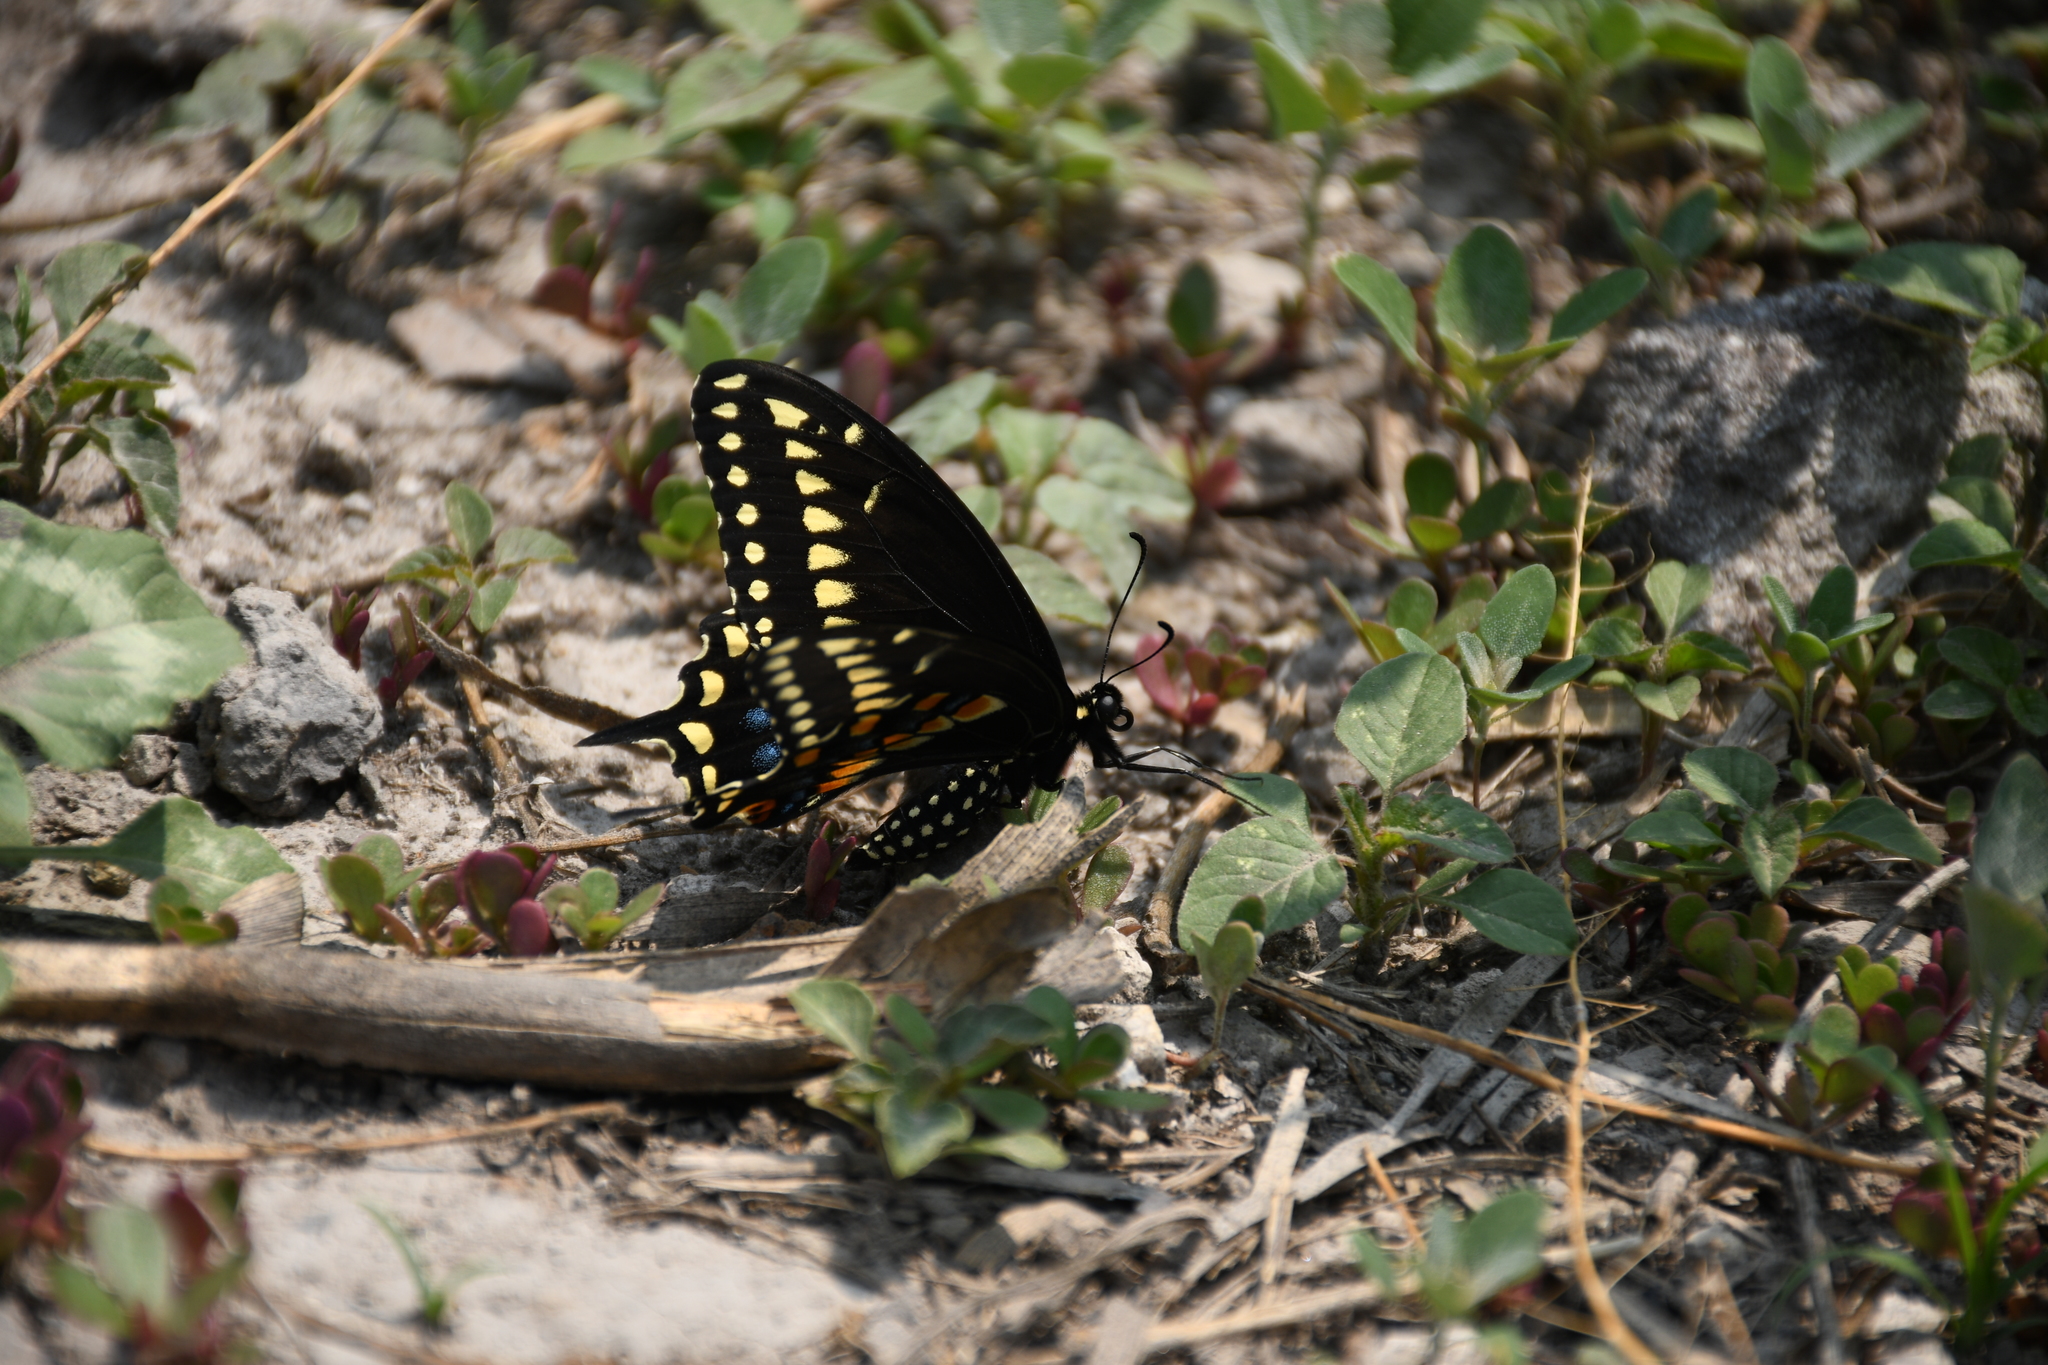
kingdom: Animalia
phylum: Arthropoda
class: Insecta
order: Lepidoptera
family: Papilionidae
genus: Papilio
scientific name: Papilio polyxenes
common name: Black swallowtail
